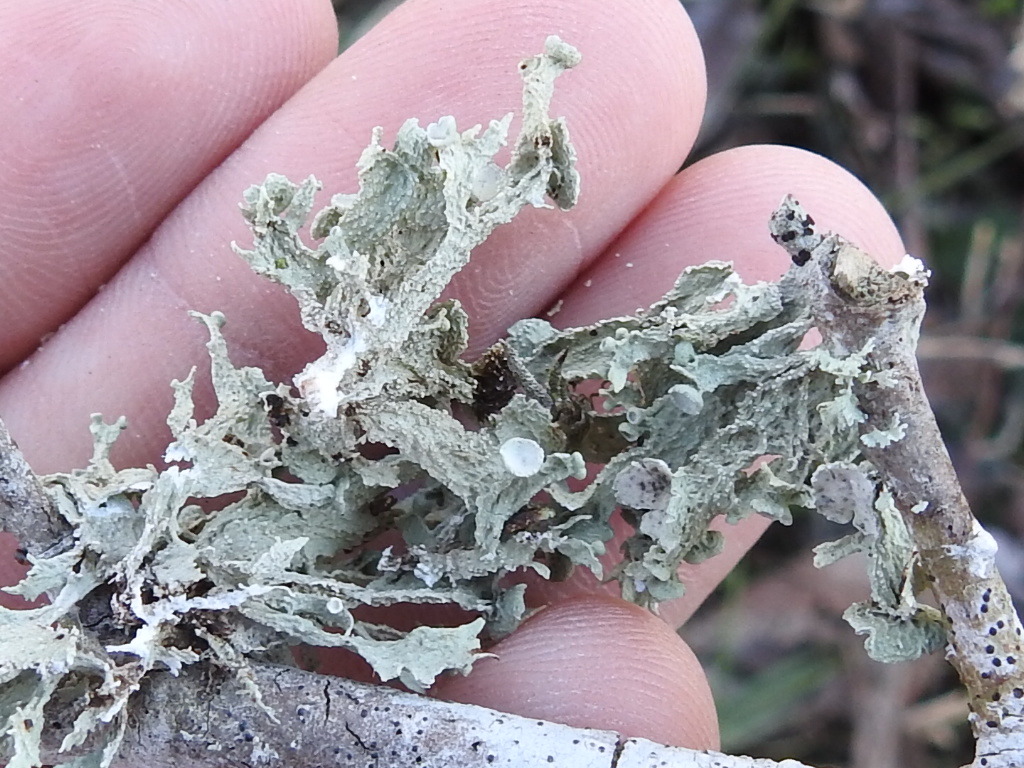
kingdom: Fungi
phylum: Ascomycota
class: Lecanoromycetes
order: Lecanorales
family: Ramalinaceae
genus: Ramalina
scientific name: Ramalina complanata
